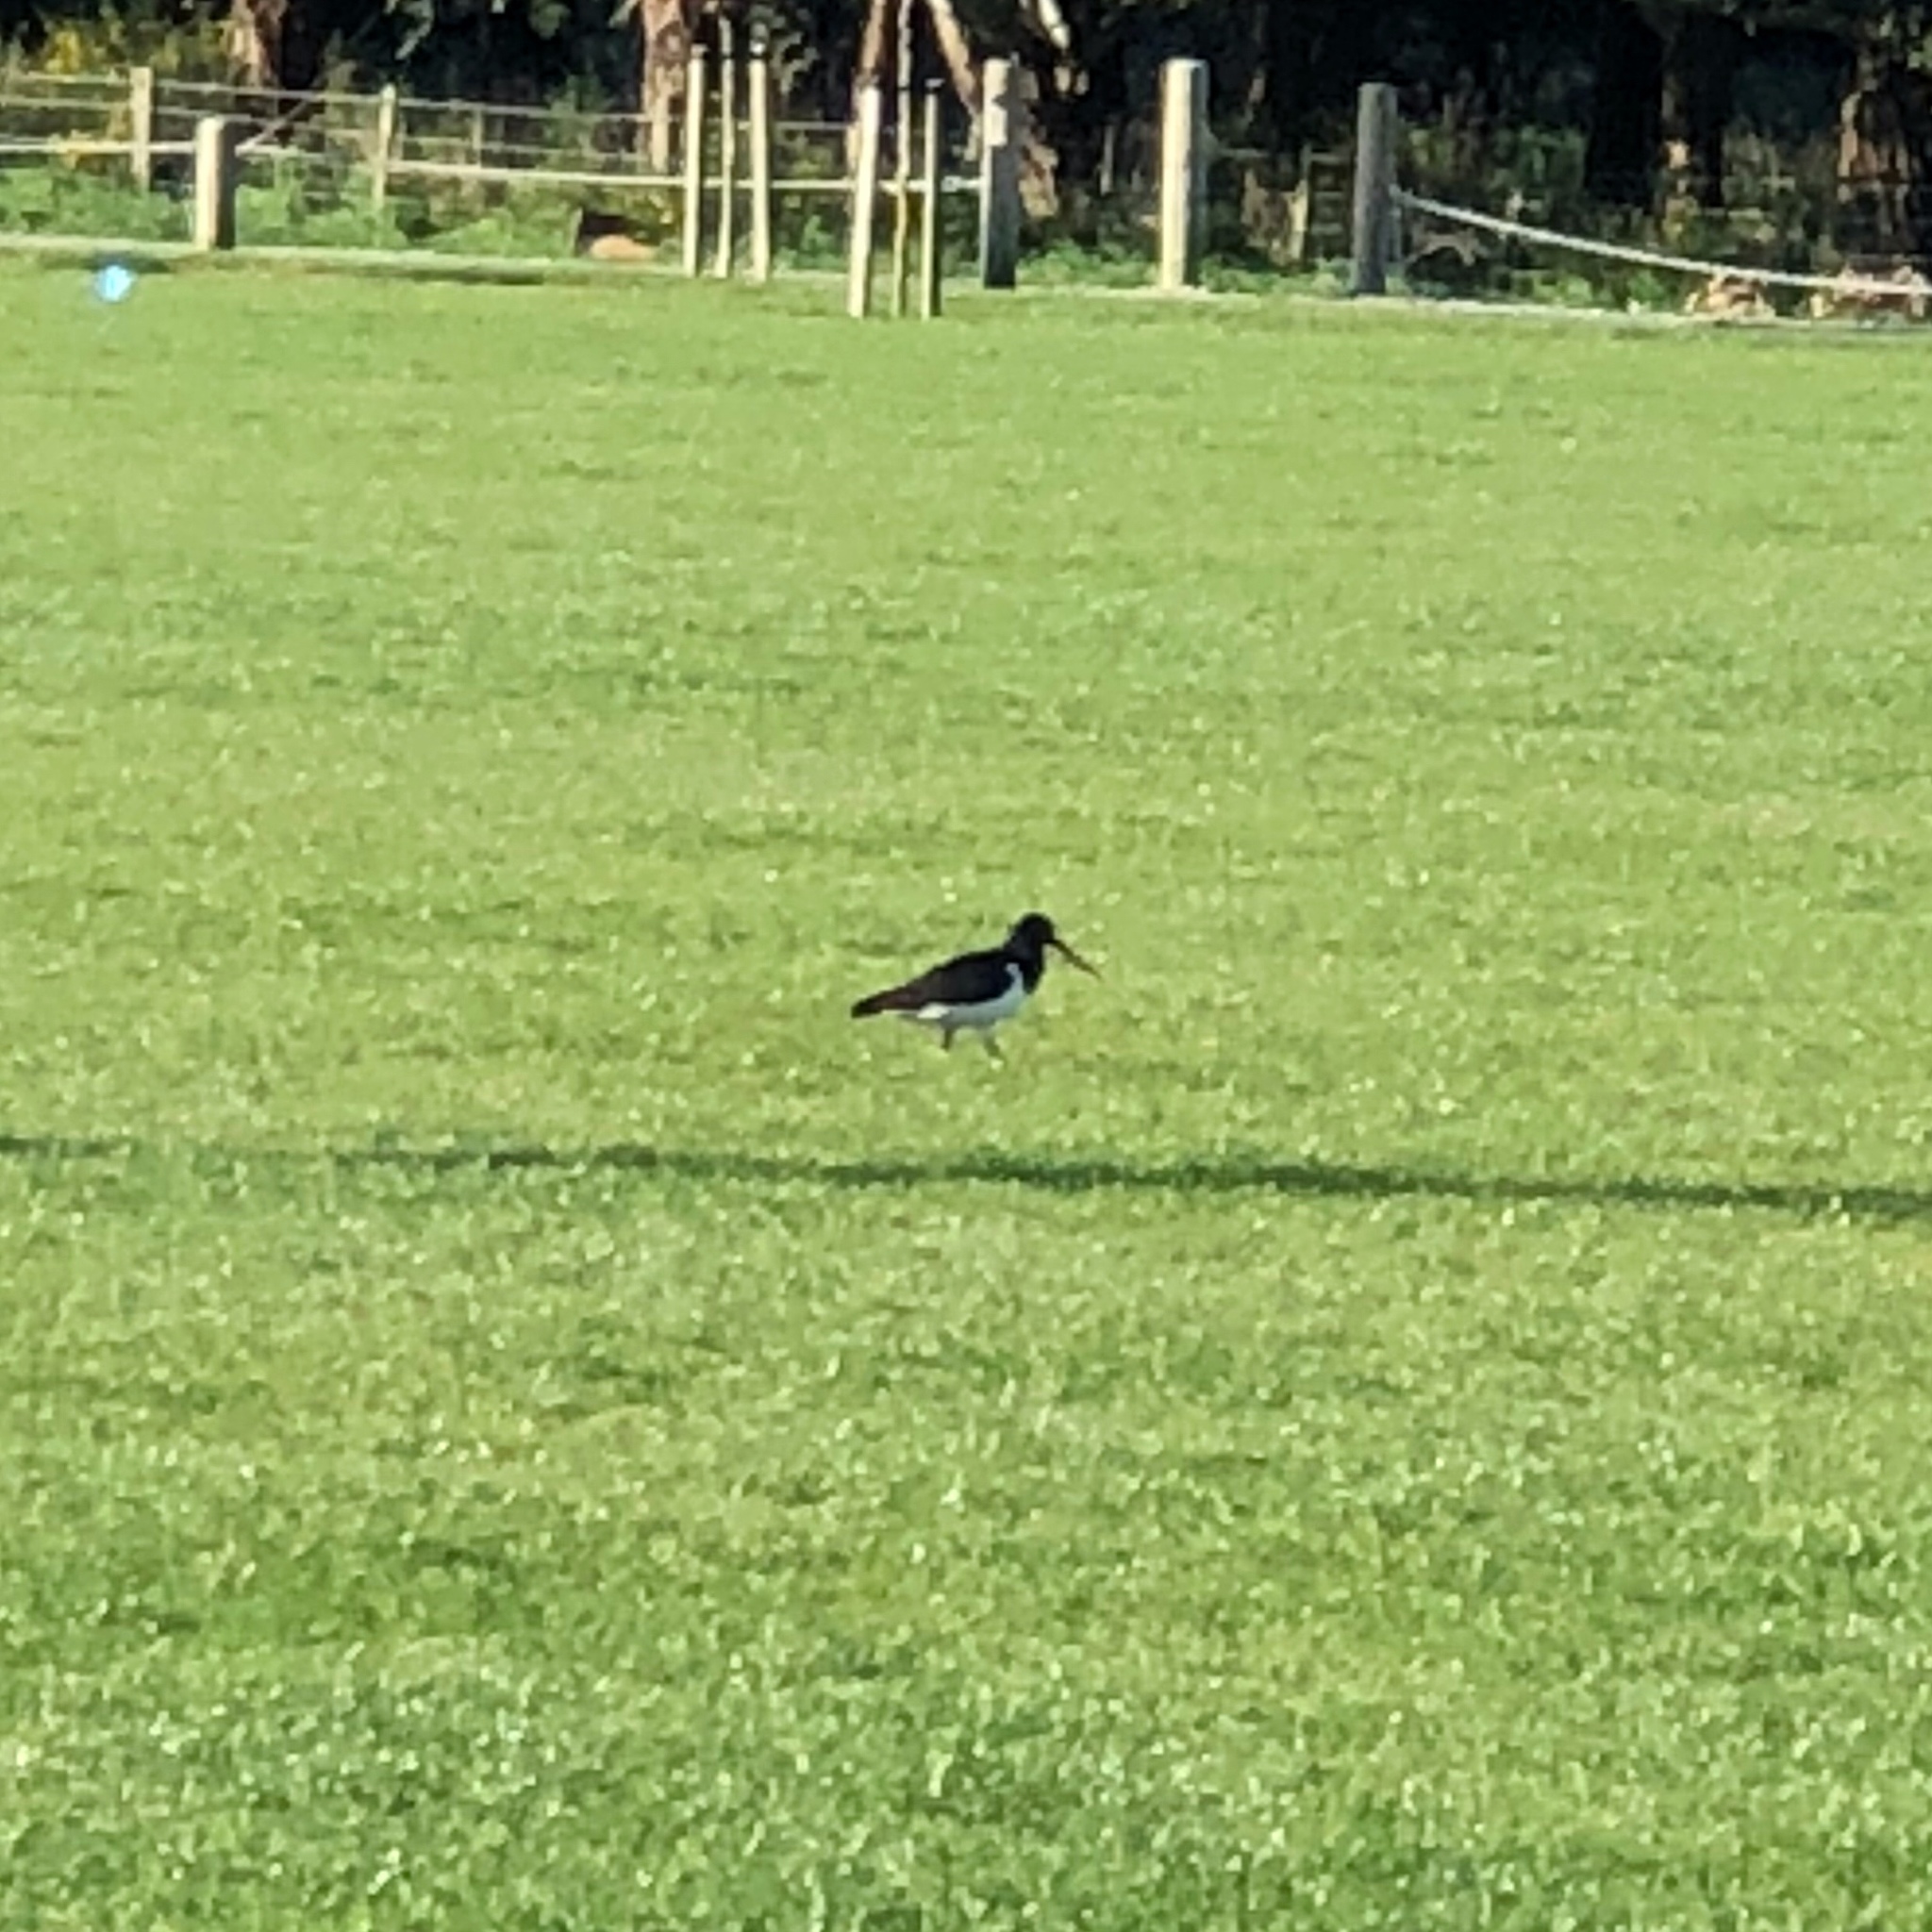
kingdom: Animalia
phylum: Chordata
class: Aves
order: Charadriiformes
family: Haematopodidae
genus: Haematopus
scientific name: Haematopus finschi
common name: South island oystercatcher
